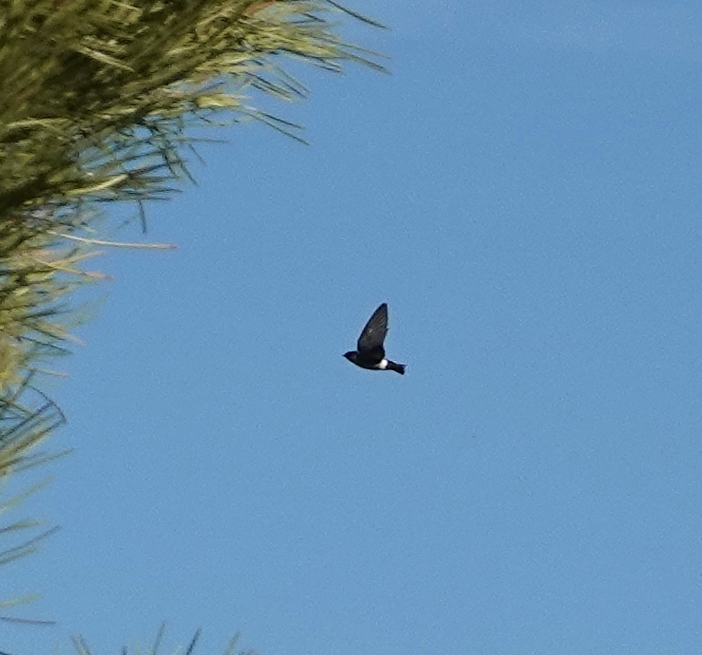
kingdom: Animalia
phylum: Chordata
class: Aves
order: Passeriformes
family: Hirundinidae
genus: Tachycineta
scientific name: Tachycineta thalassina
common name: Violet-green swallow
